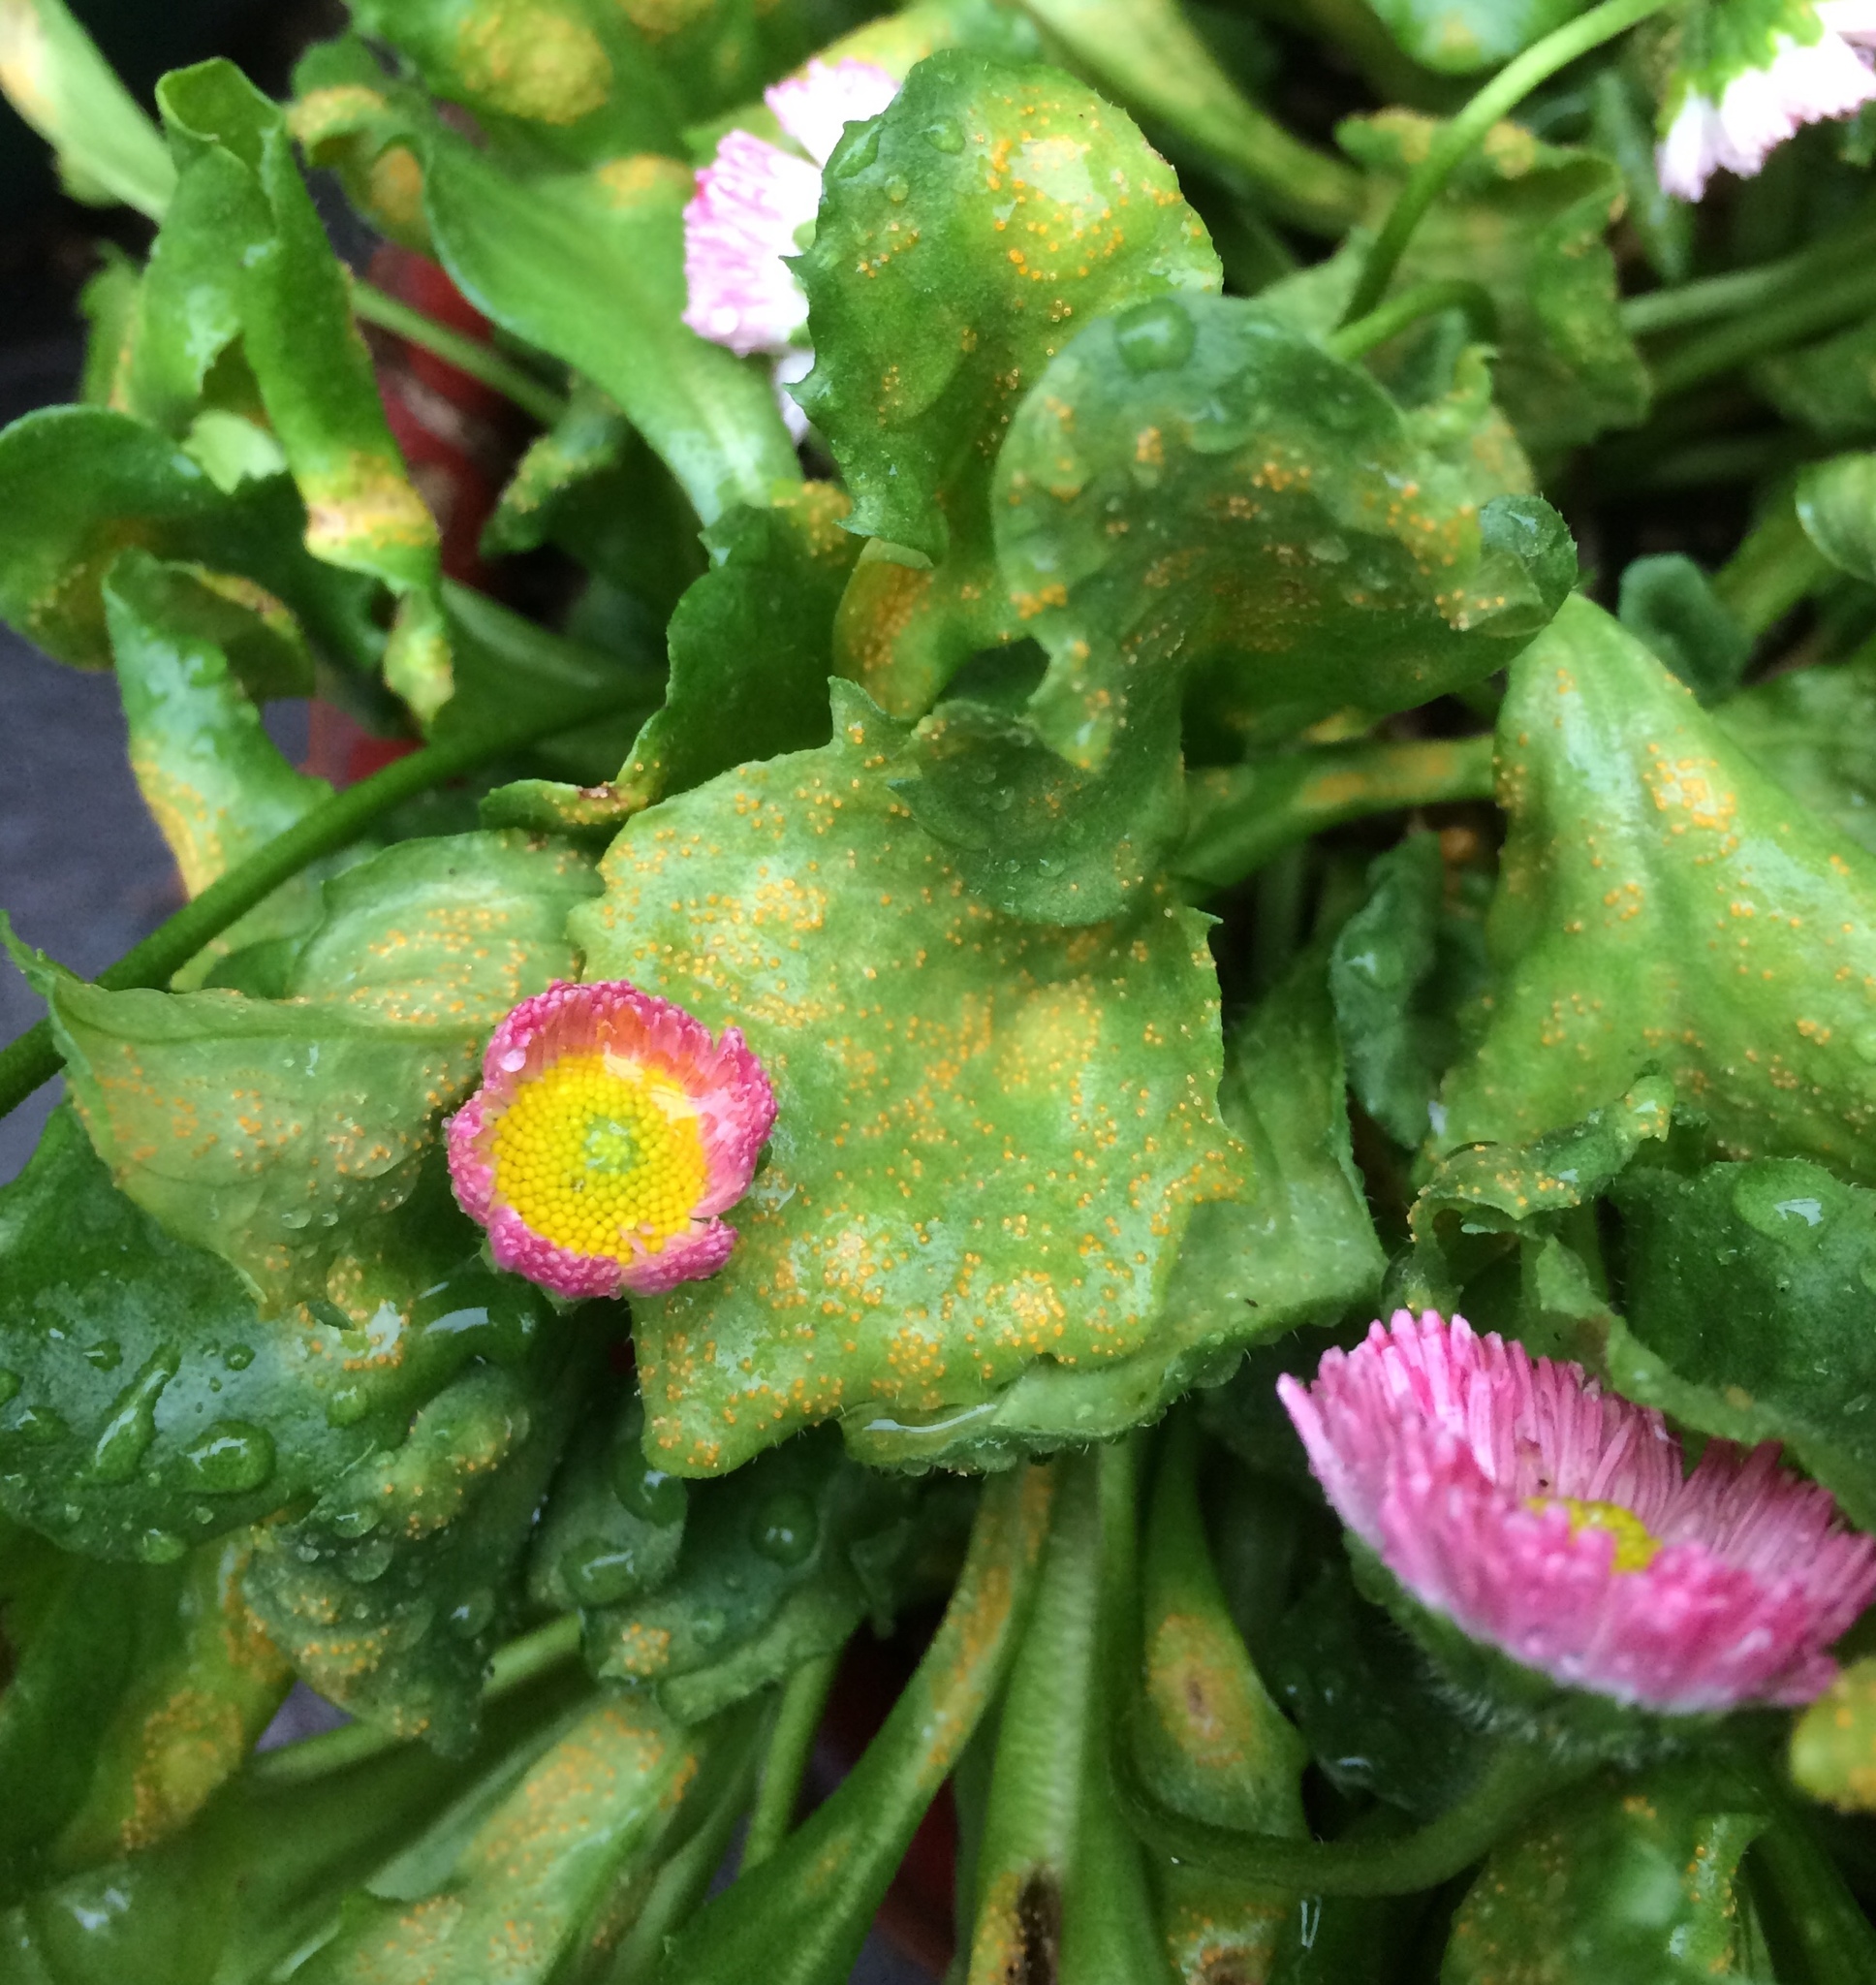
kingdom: Fungi
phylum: Basidiomycota
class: Pucciniomycetes
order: Pucciniales
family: Pucciniaceae
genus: Puccinia
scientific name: Puccinia lagenophorae
